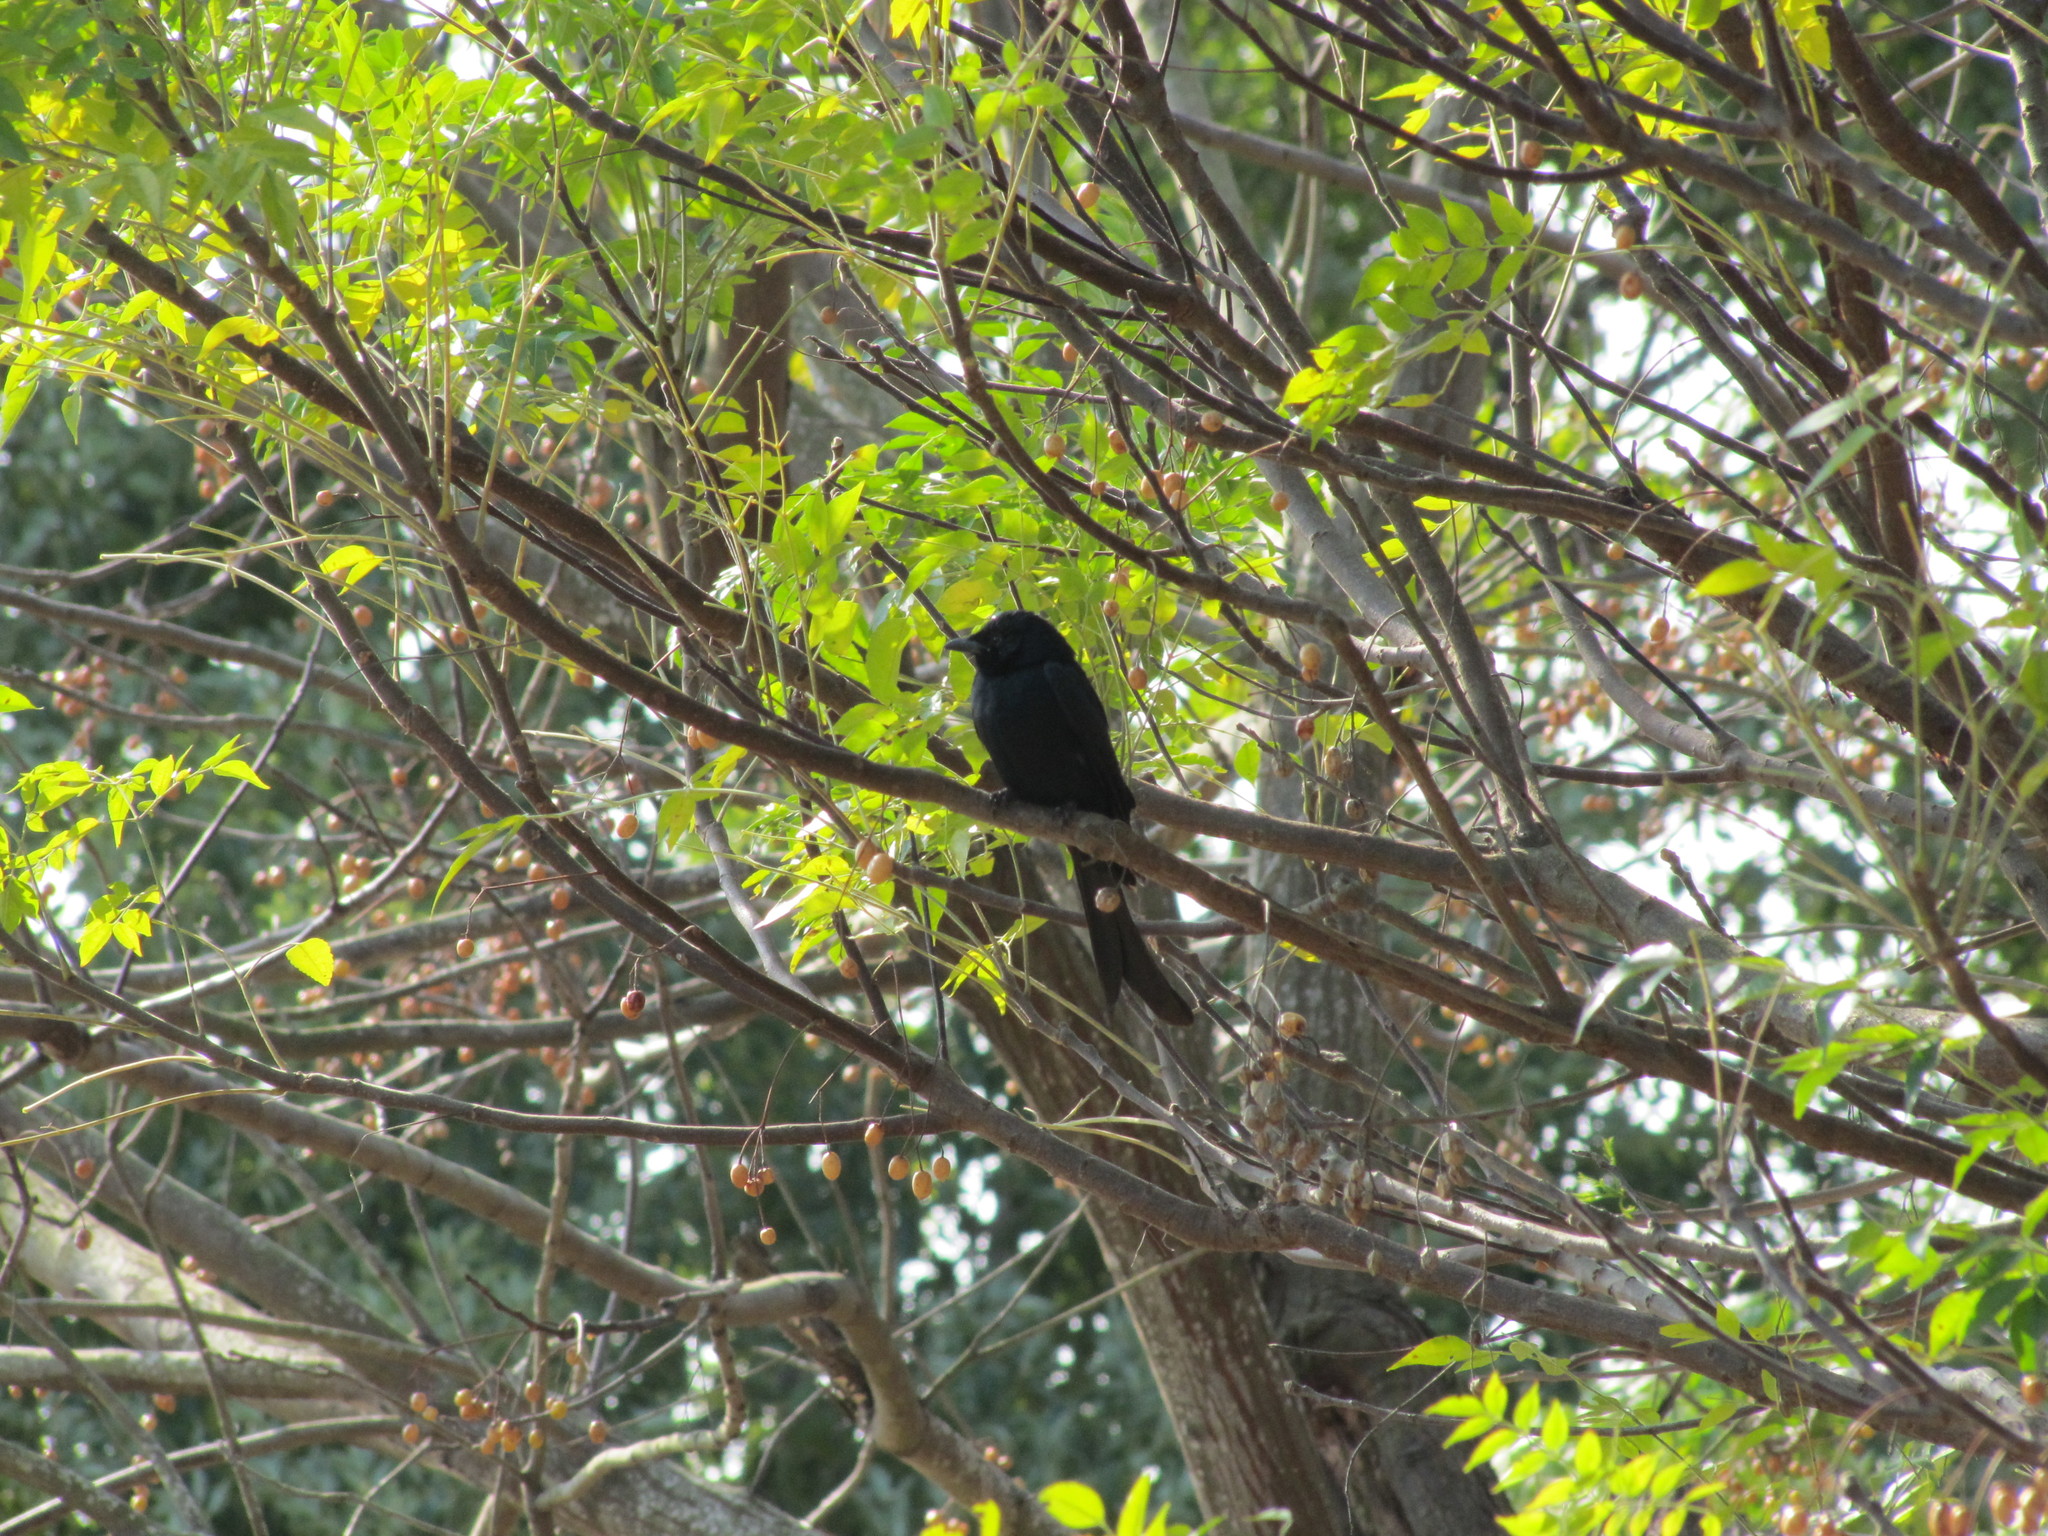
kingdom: Animalia
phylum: Chordata
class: Aves
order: Passeriformes
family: Dicruridae
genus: Dicrurus
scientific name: Dicrurus macrocercus
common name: Black drongo
